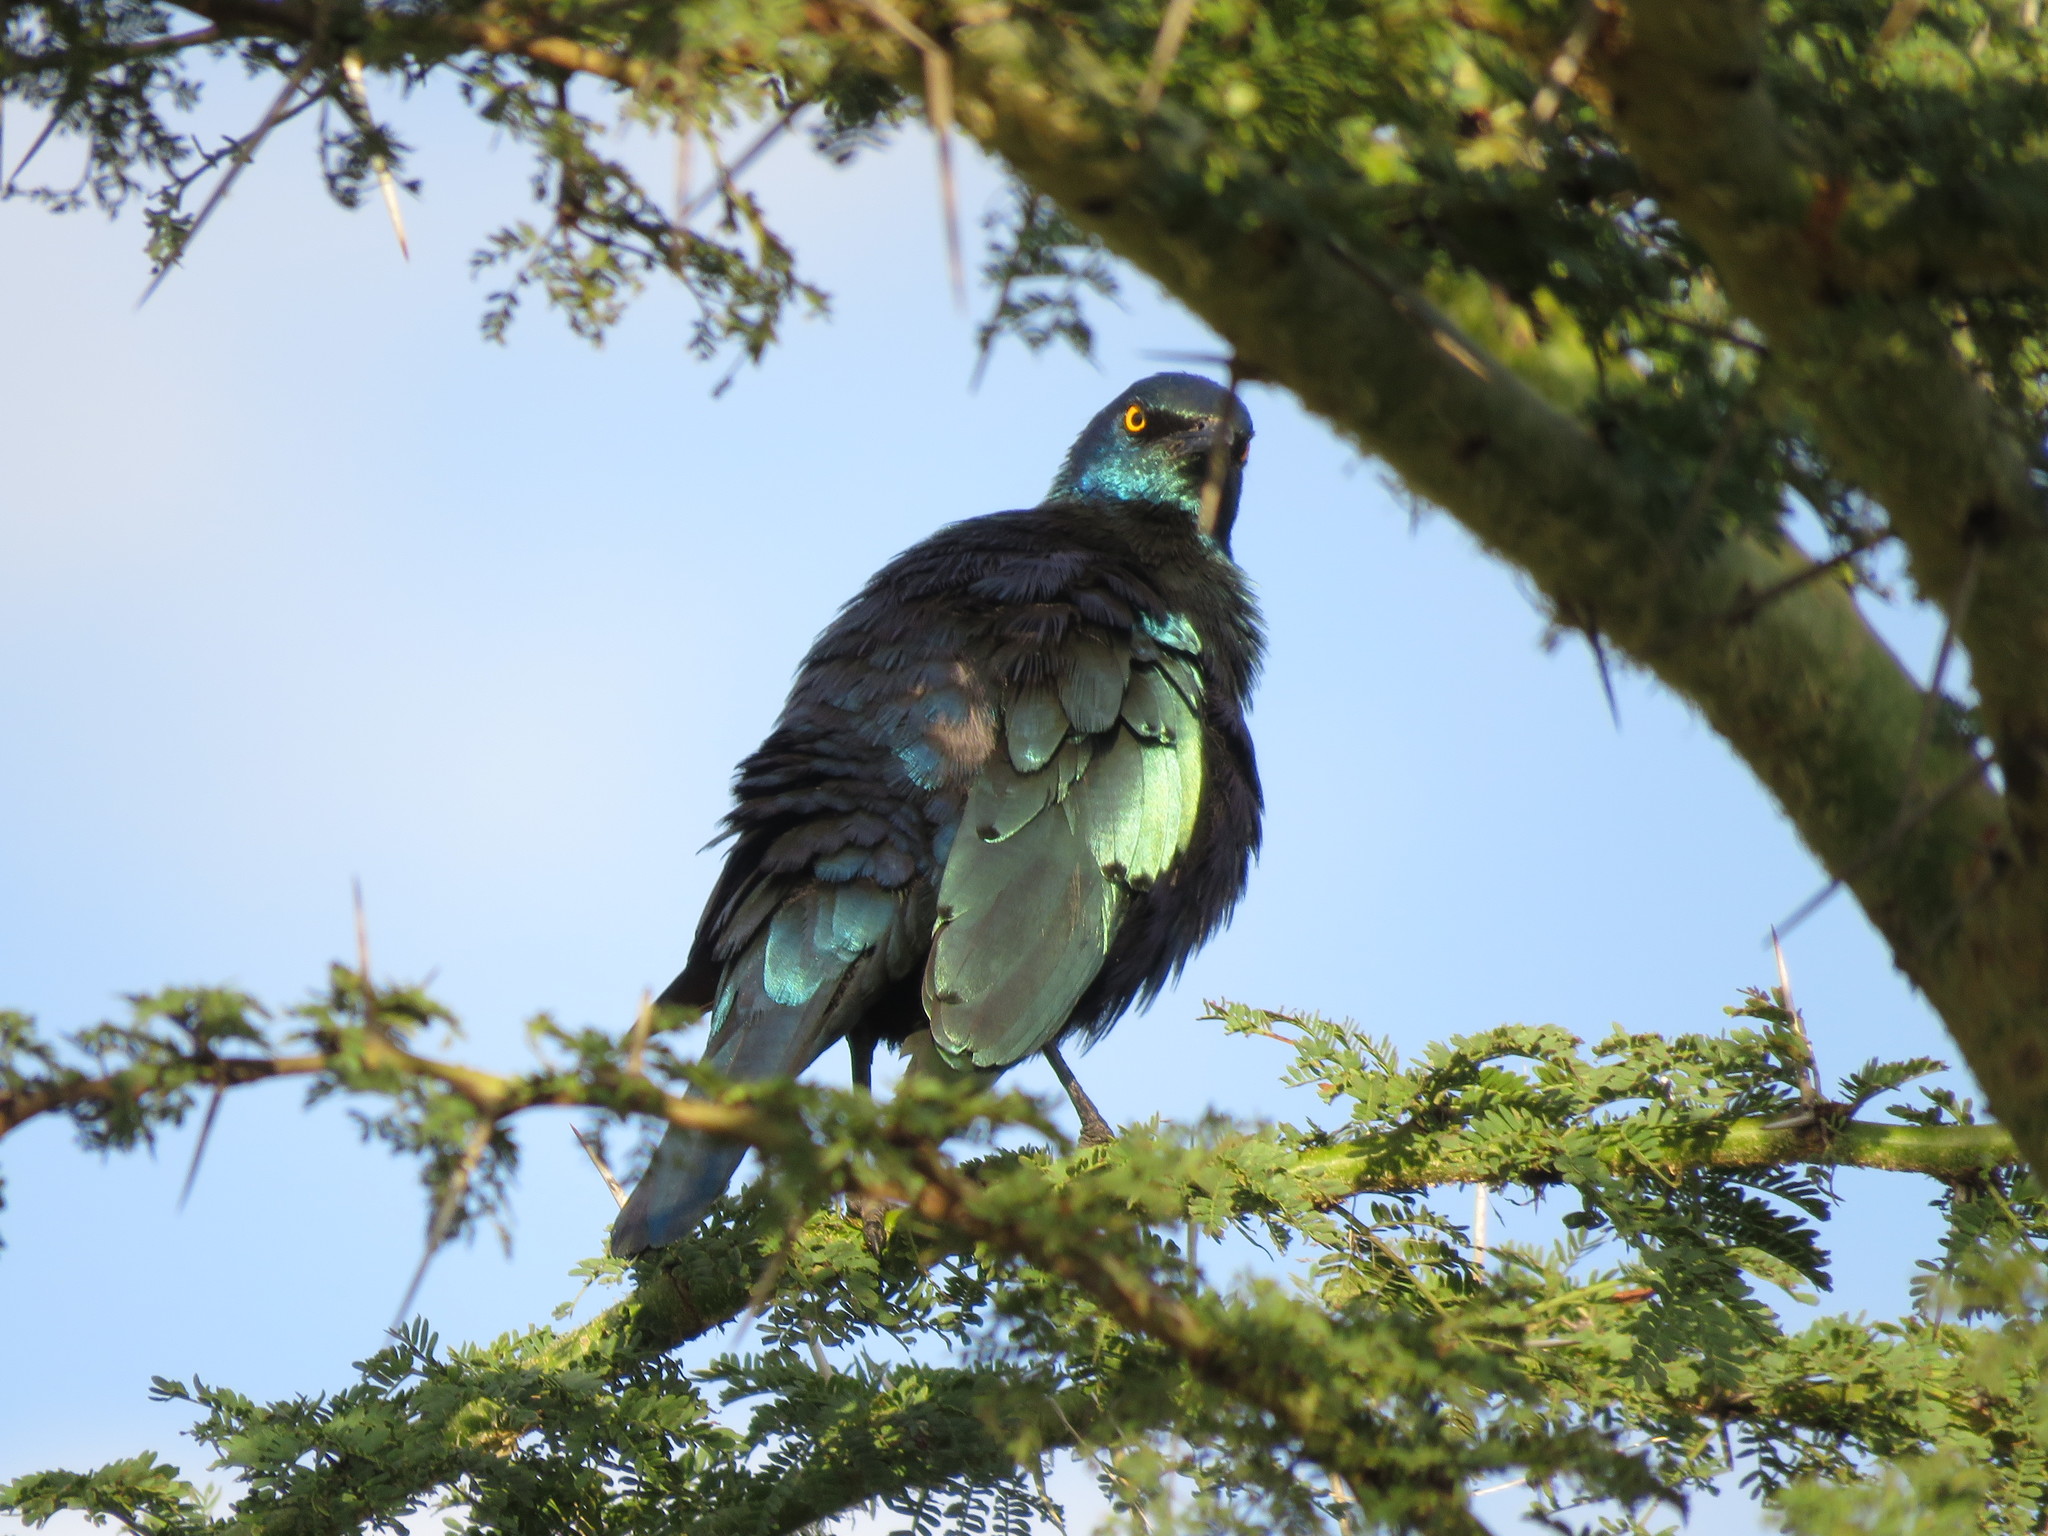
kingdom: Animalia
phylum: Chordata
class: Aves
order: Passeriformes
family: Sturnidae
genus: Lamprotornis
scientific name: Lamprotornis chalybaeus
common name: Greater blue-eared starling
